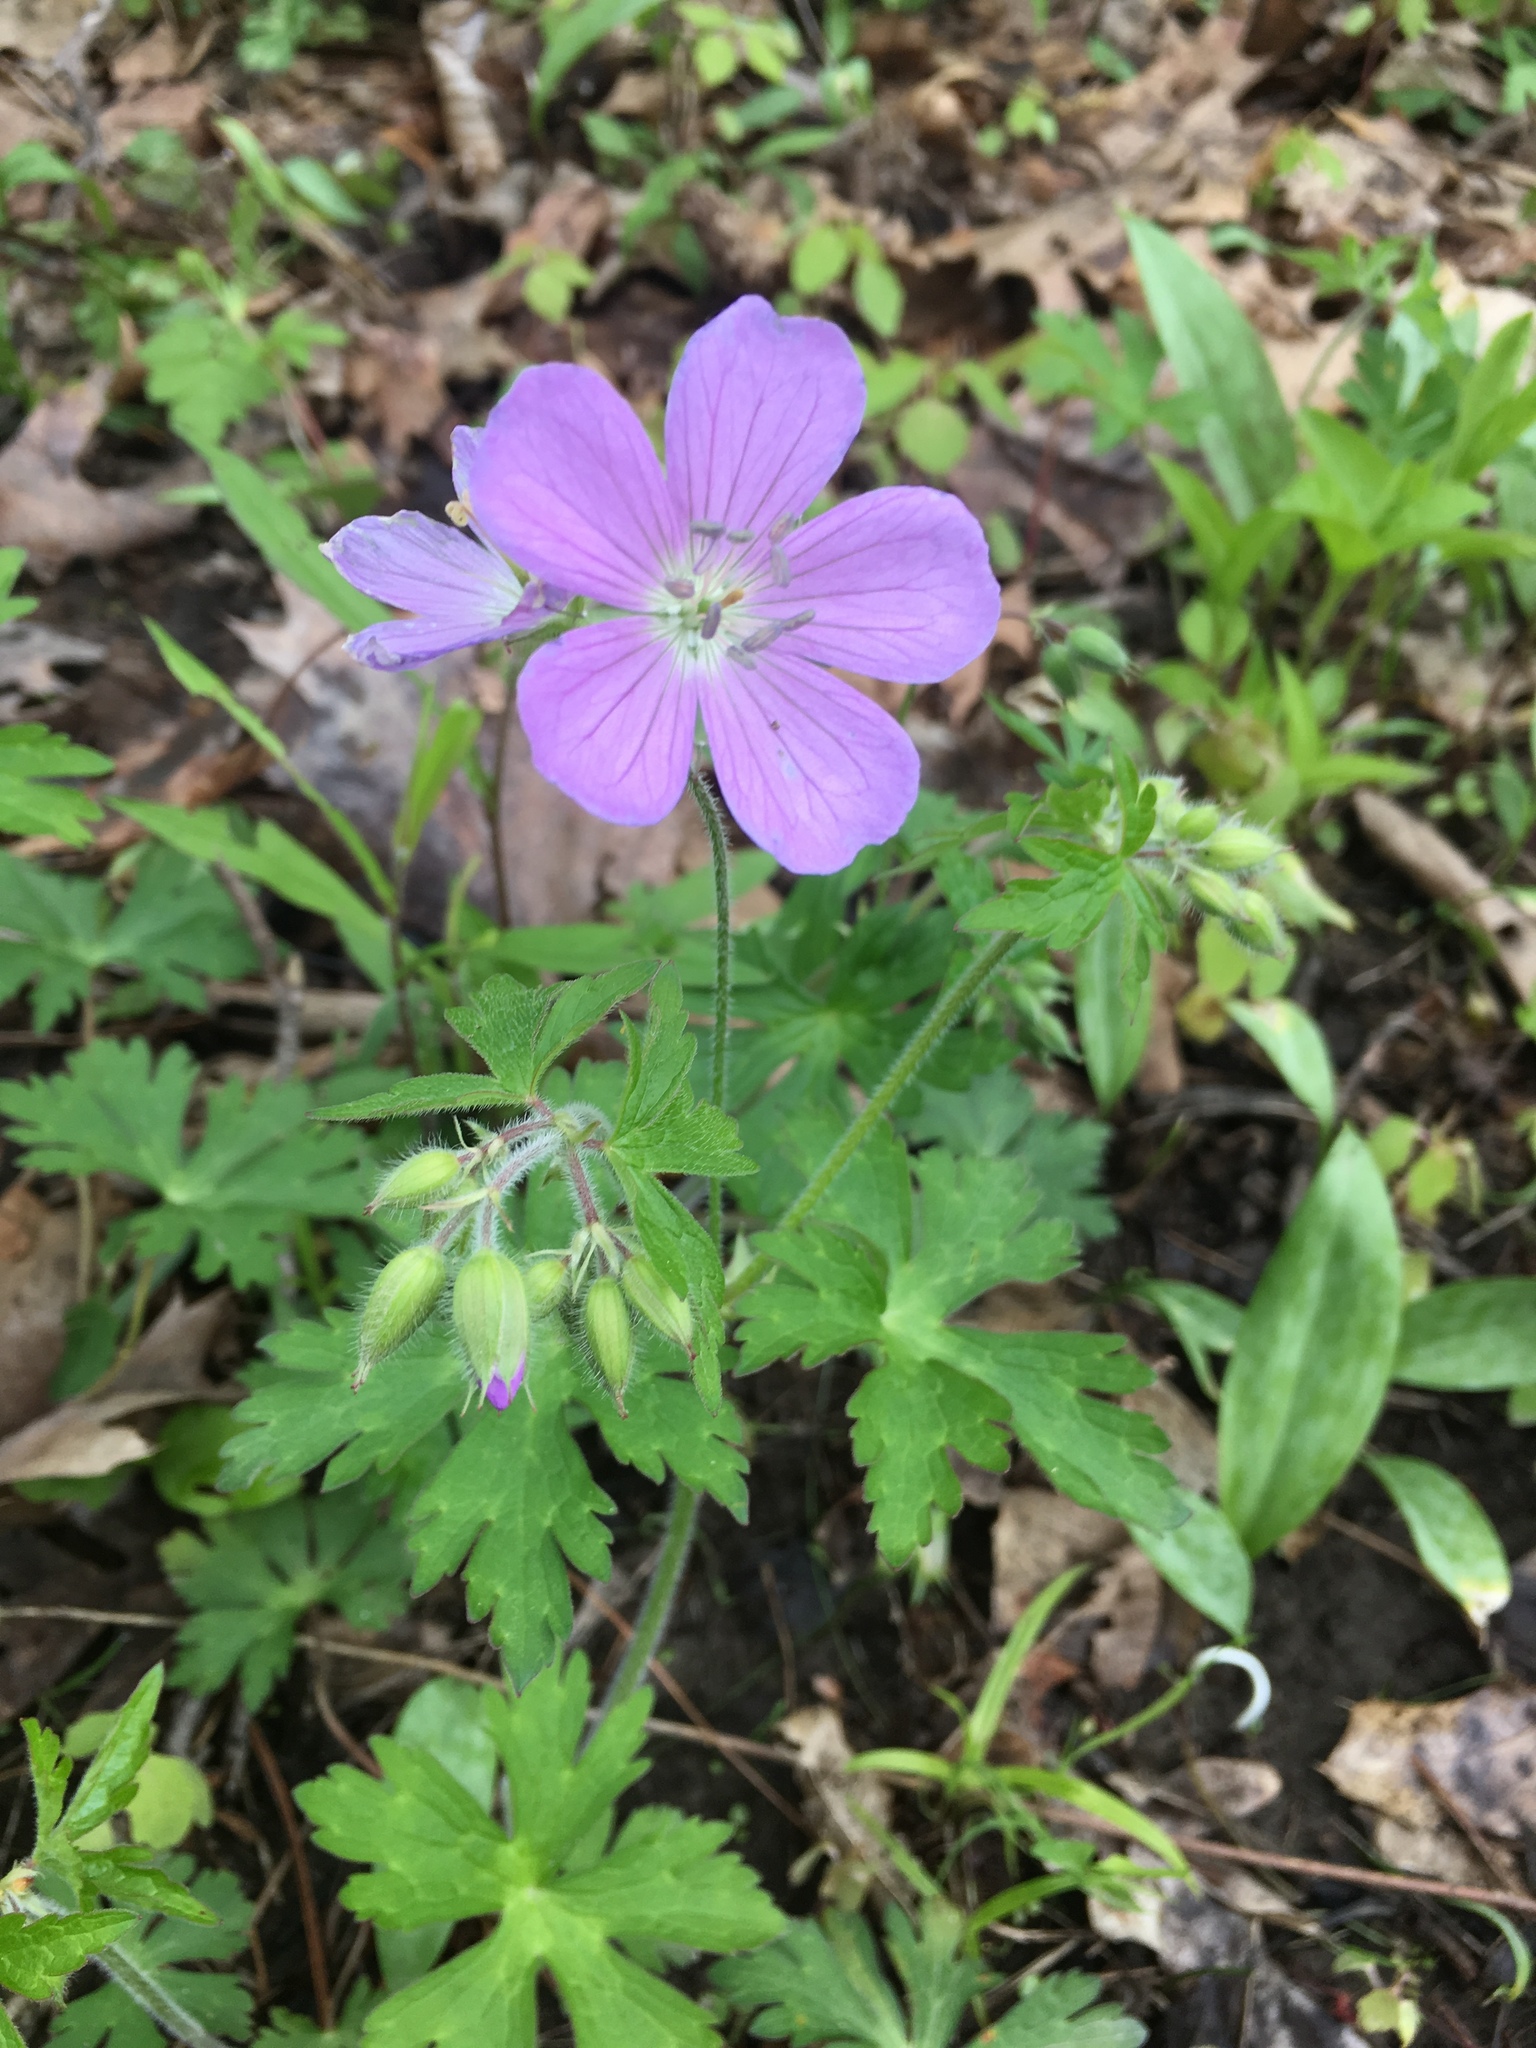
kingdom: Plantae
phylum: Tracheophyta
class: Magnoliopsida
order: Geraniales
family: Geraniaceae
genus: Geranium
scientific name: Geranium maculatum
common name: Spotted geranium
